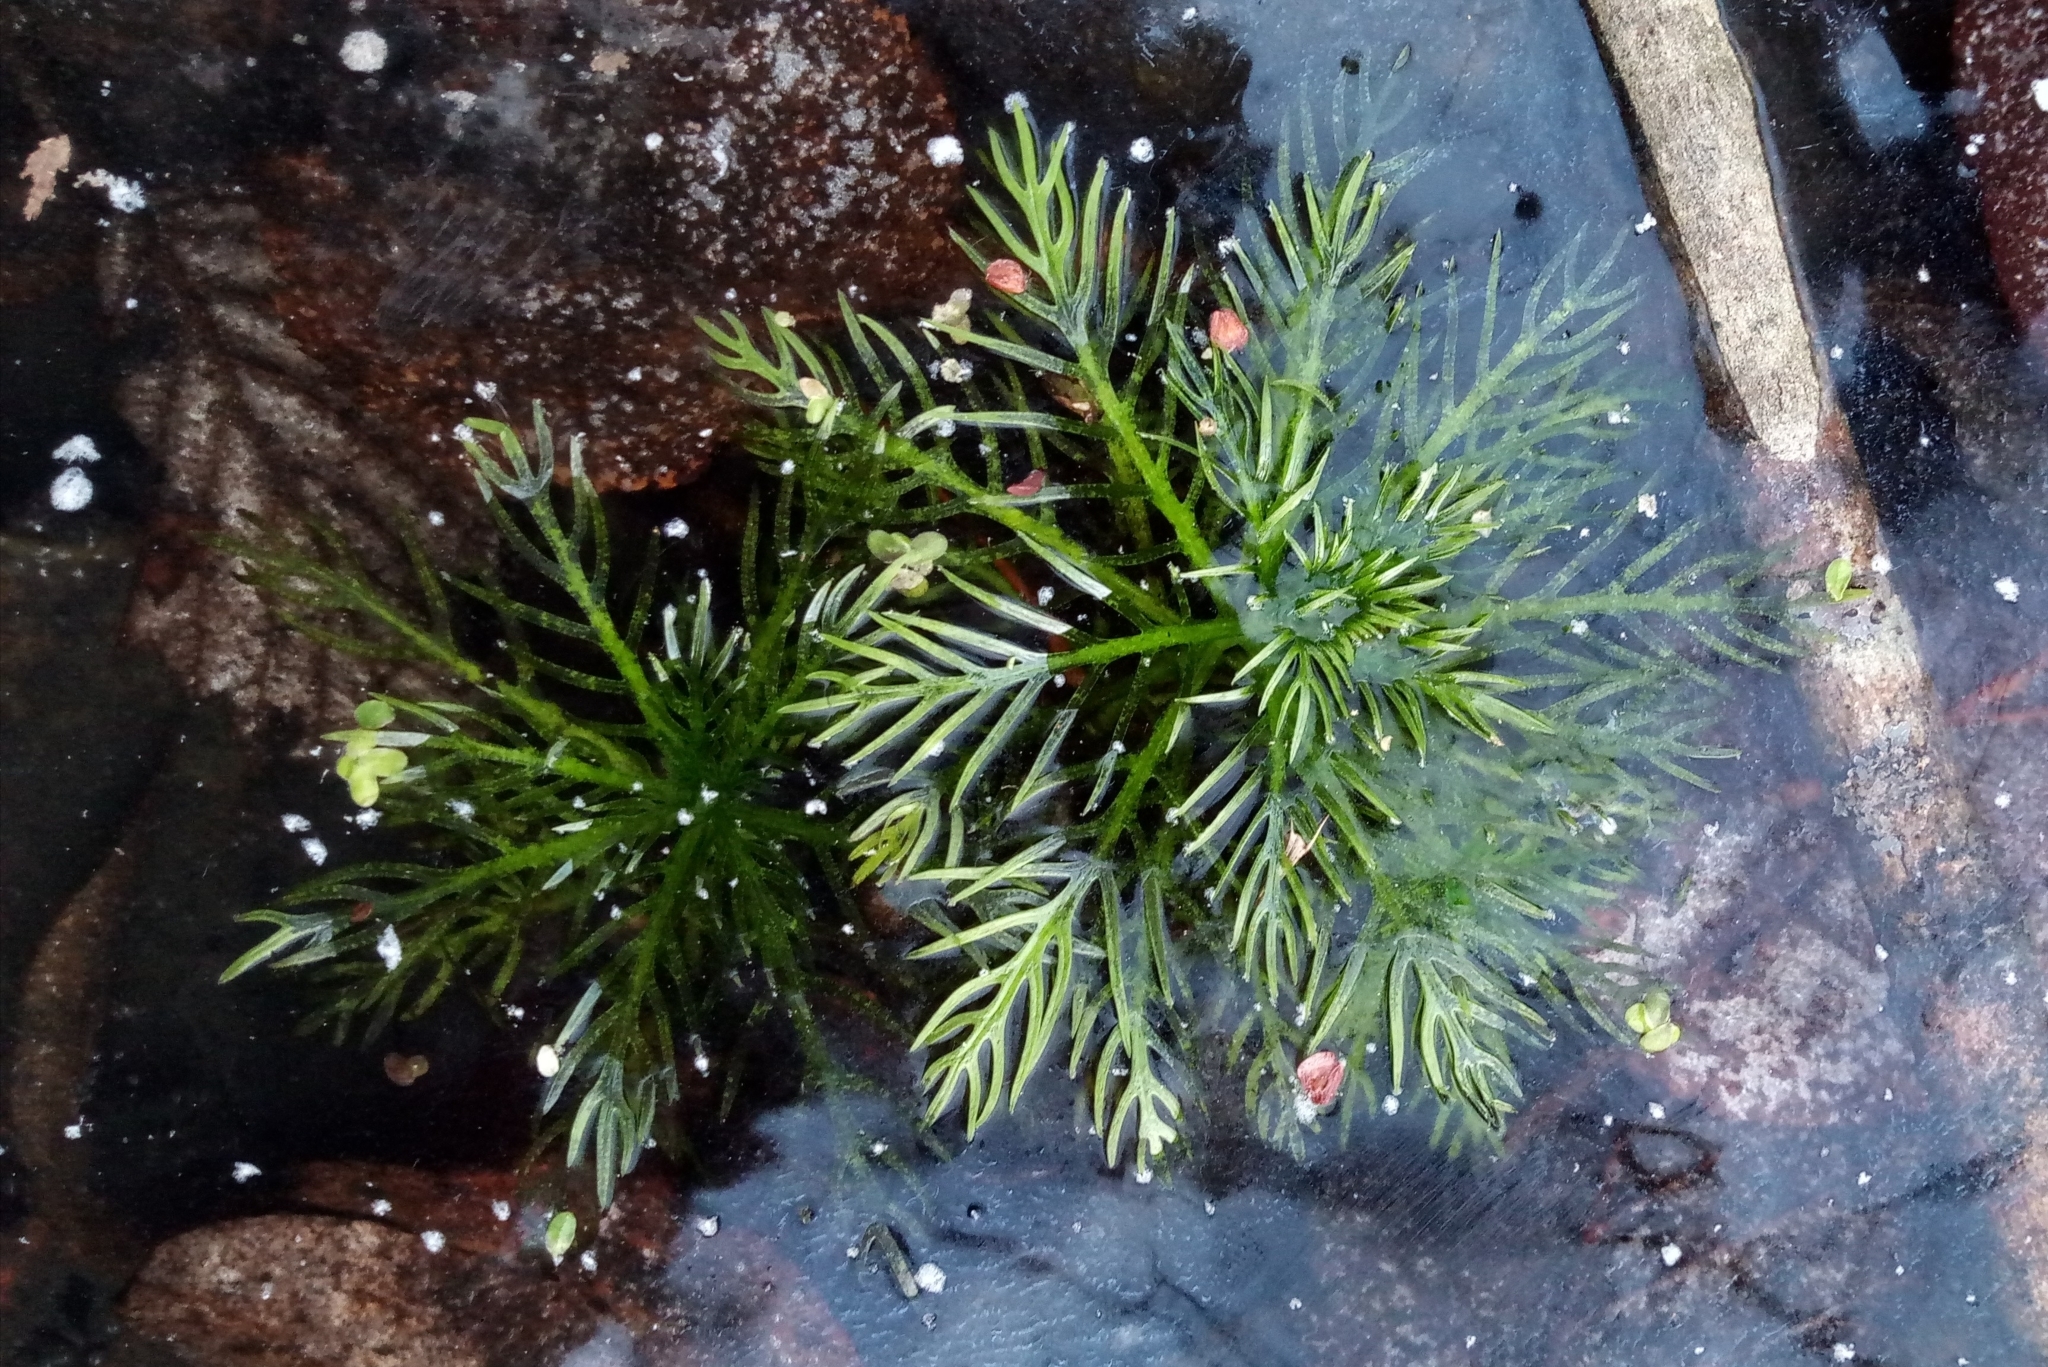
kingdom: Plantae
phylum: Tracheophyta
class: Magnoliopsida
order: Ericales
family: Primulaceae
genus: Hottonia
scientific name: Hottonia palustris
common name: Water-violet
